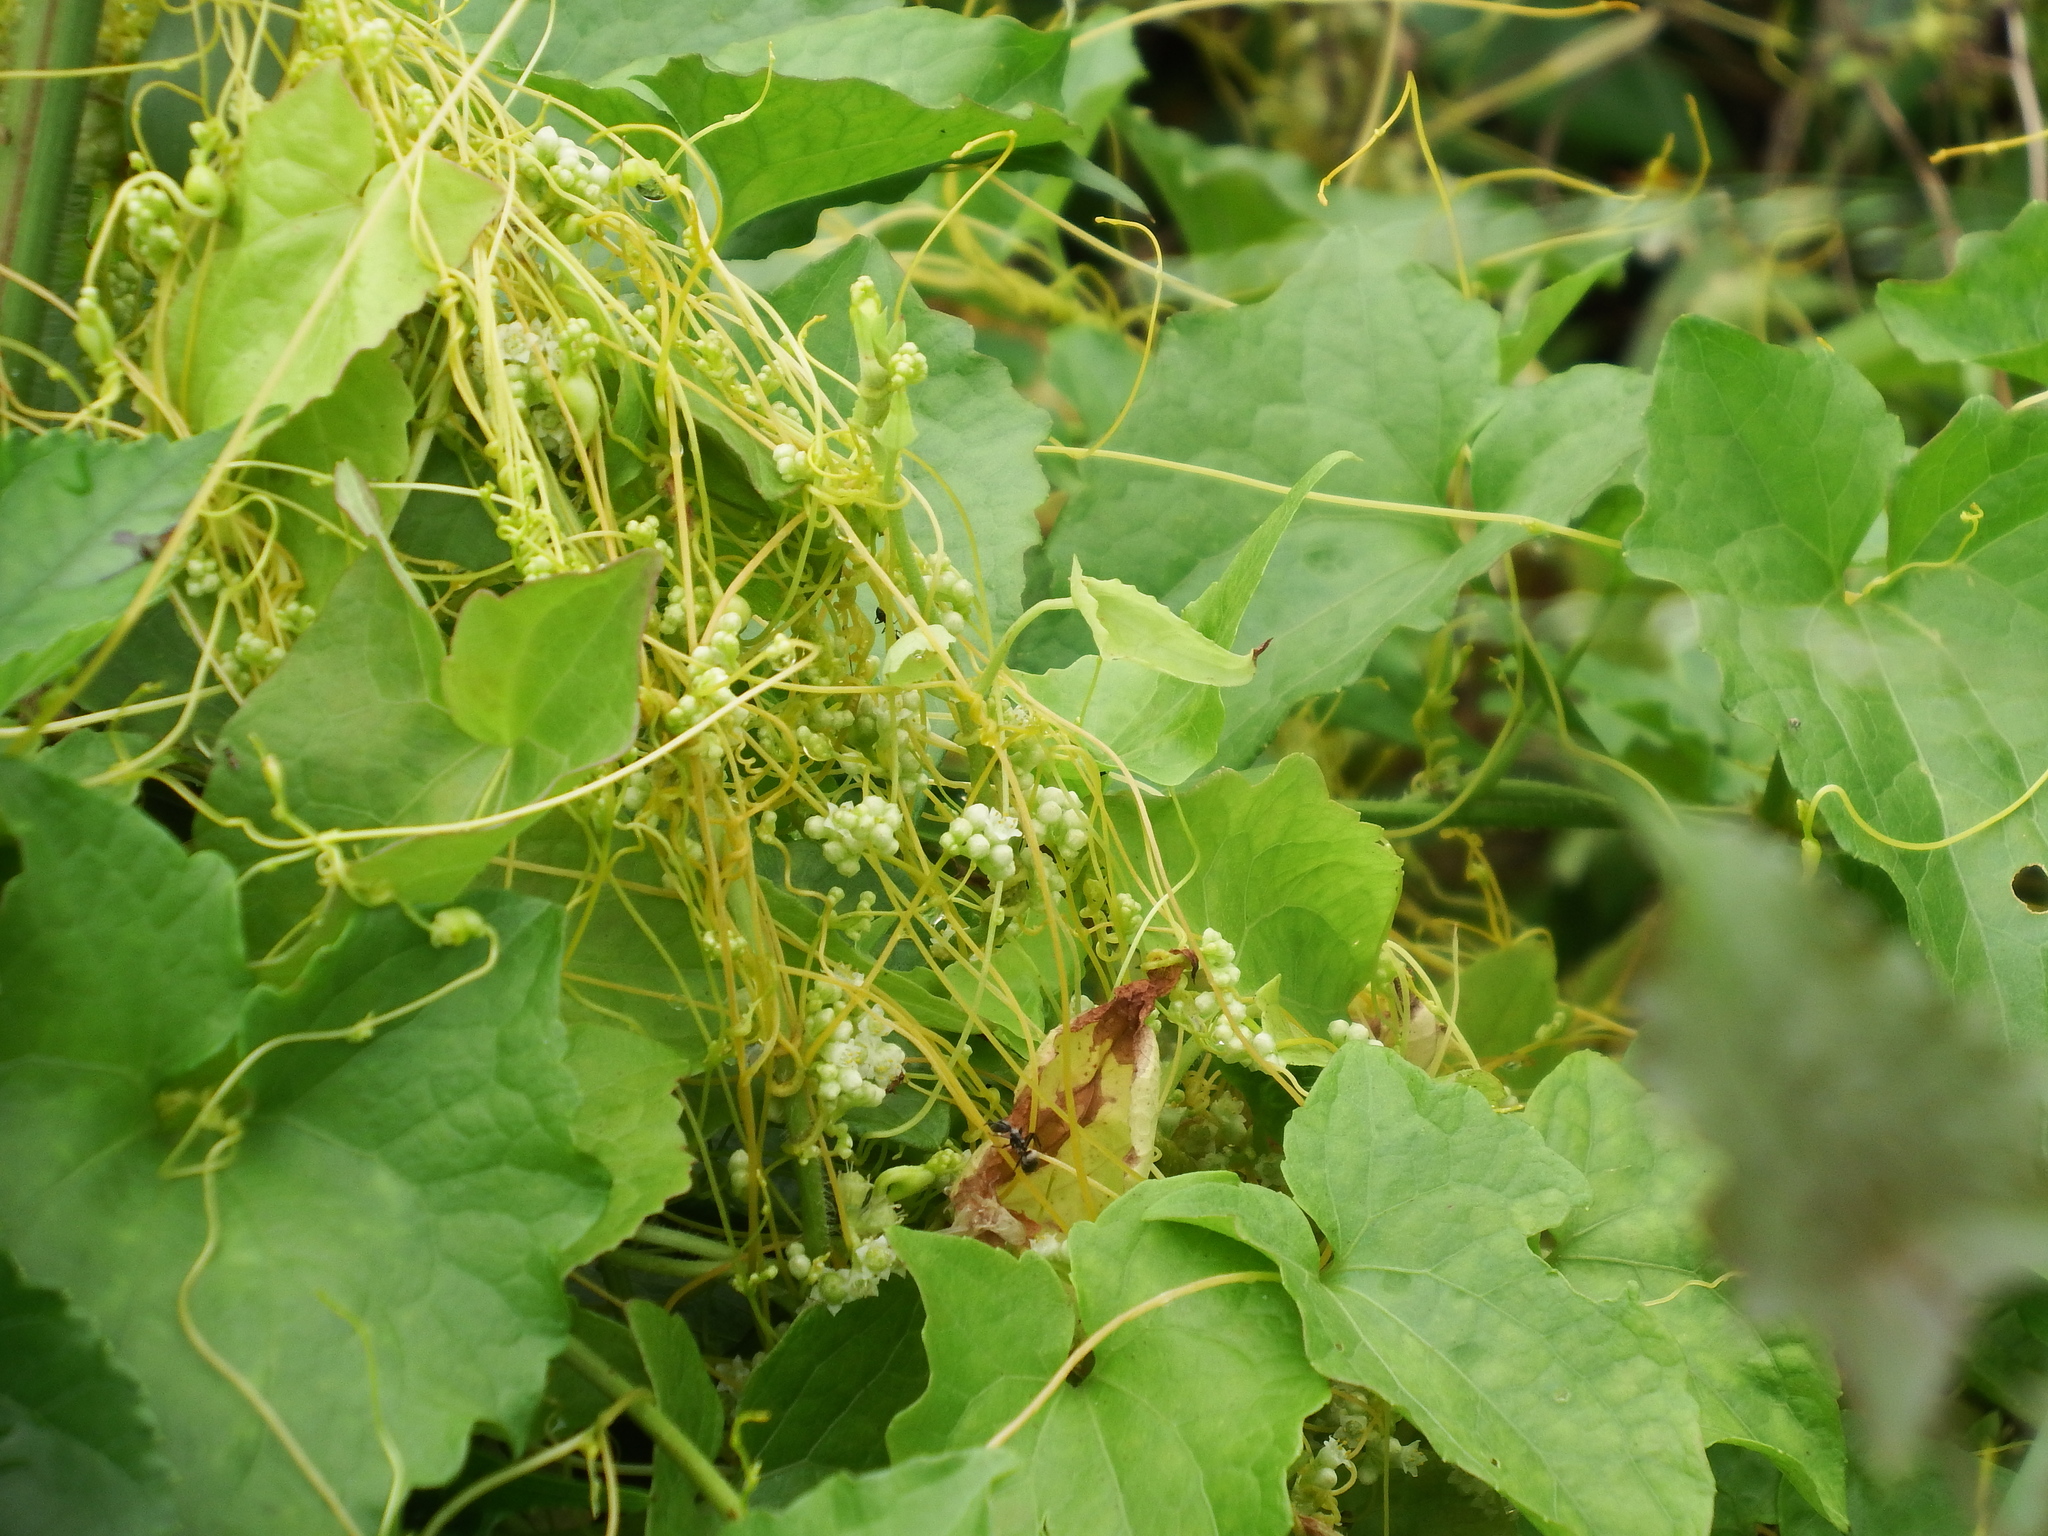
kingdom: Plantae
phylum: Tracheophyta
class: Magnoliopsida
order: Solanales
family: Convolvulaceae
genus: Cuscuta
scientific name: Cuscuta campestris
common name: Yellow dodder
